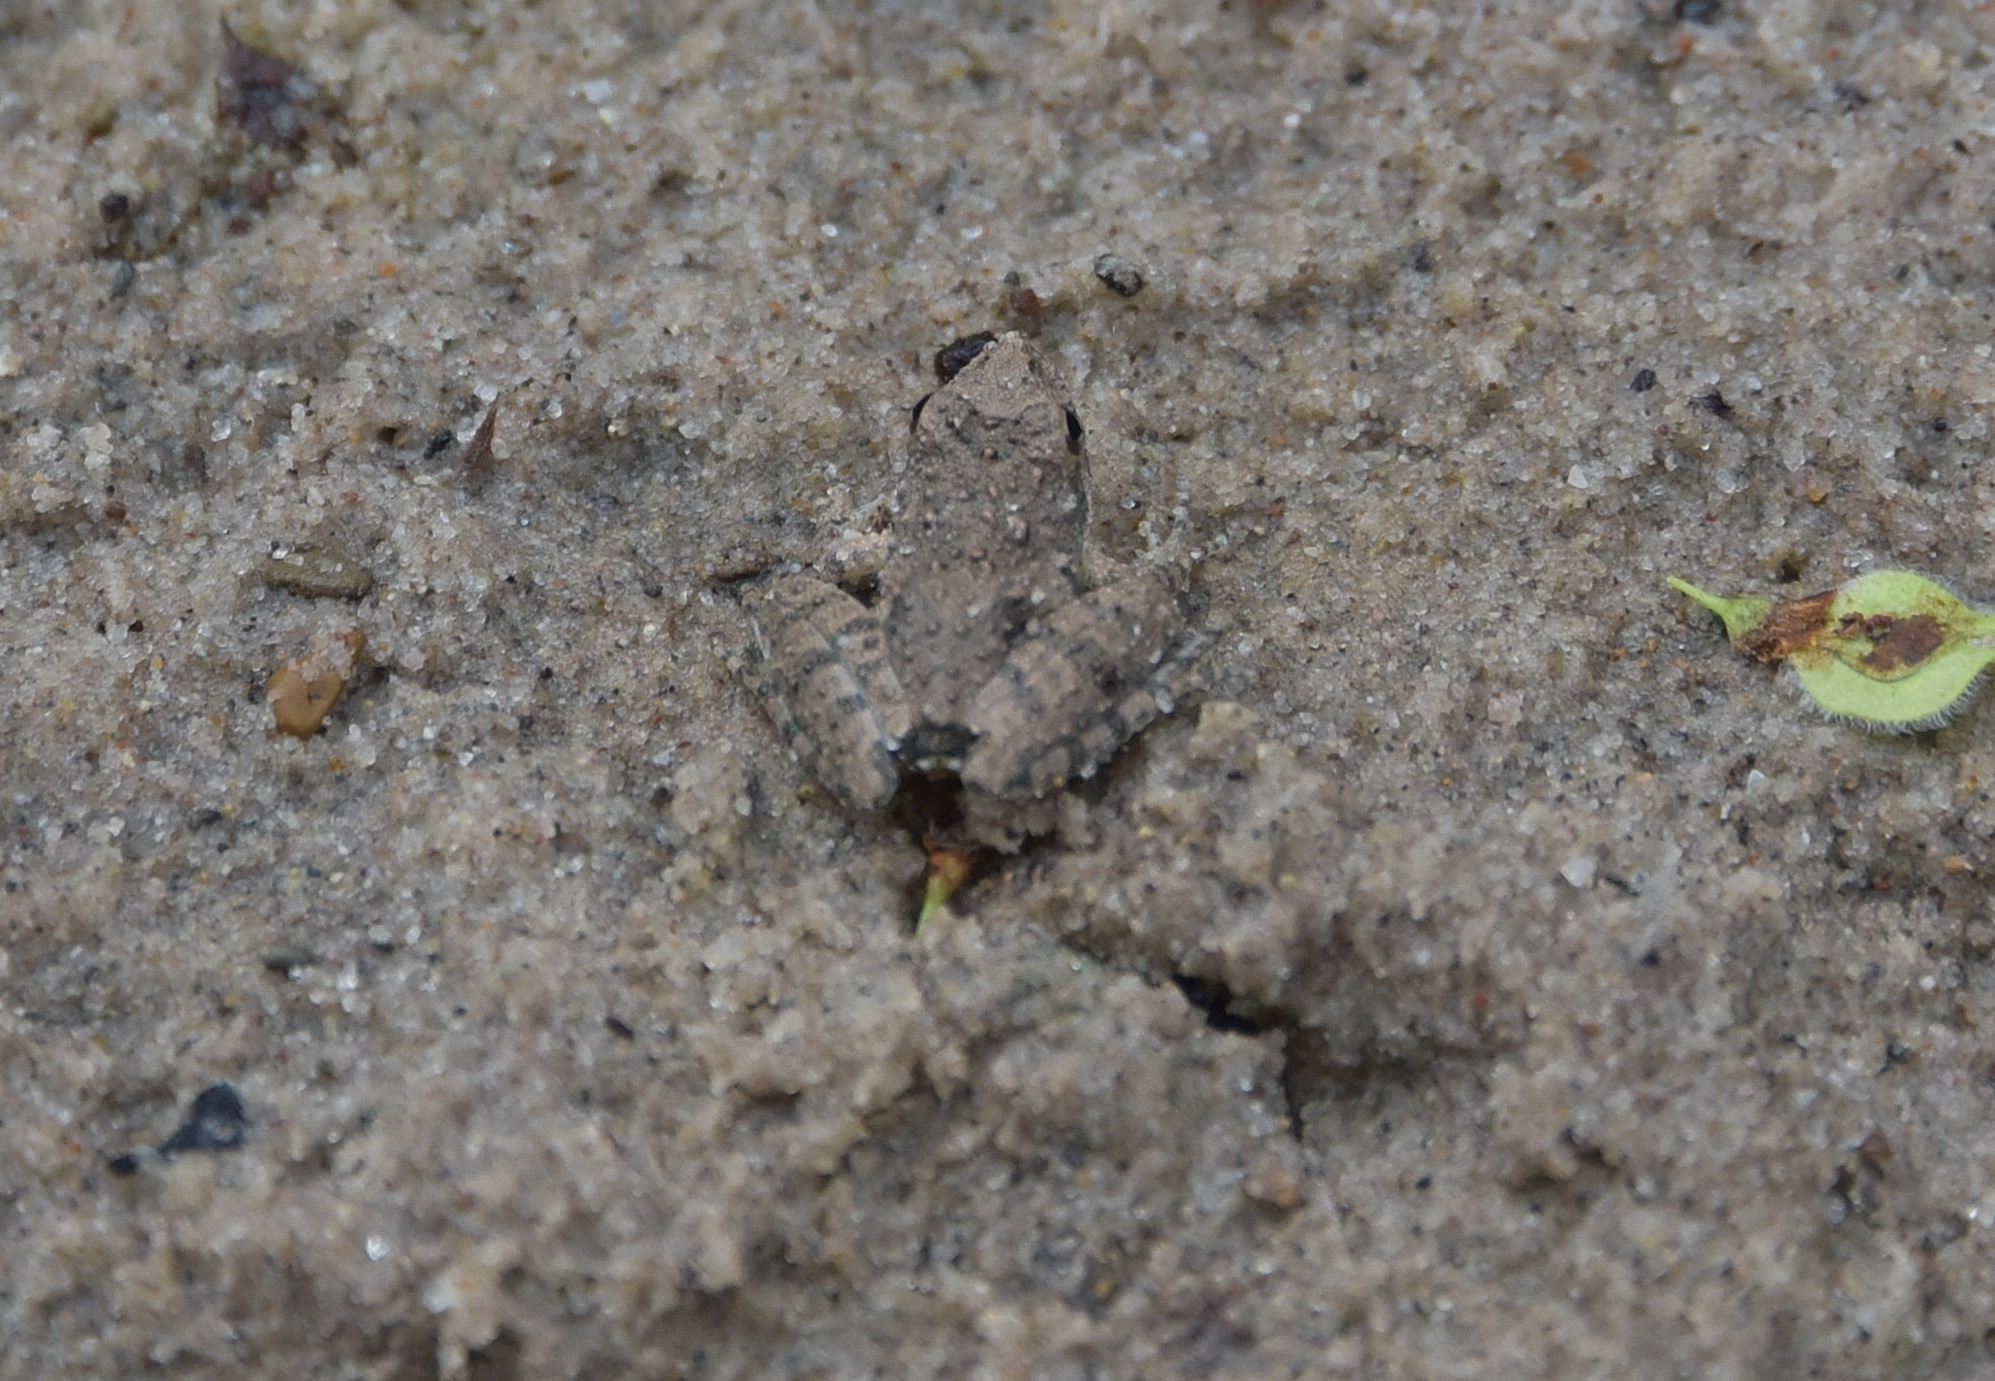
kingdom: Animalia
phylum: Chordata
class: Amphibia
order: Anura
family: Hylidae
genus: Acris
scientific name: Acris blanchardi
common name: Blanchard's cricket frog
